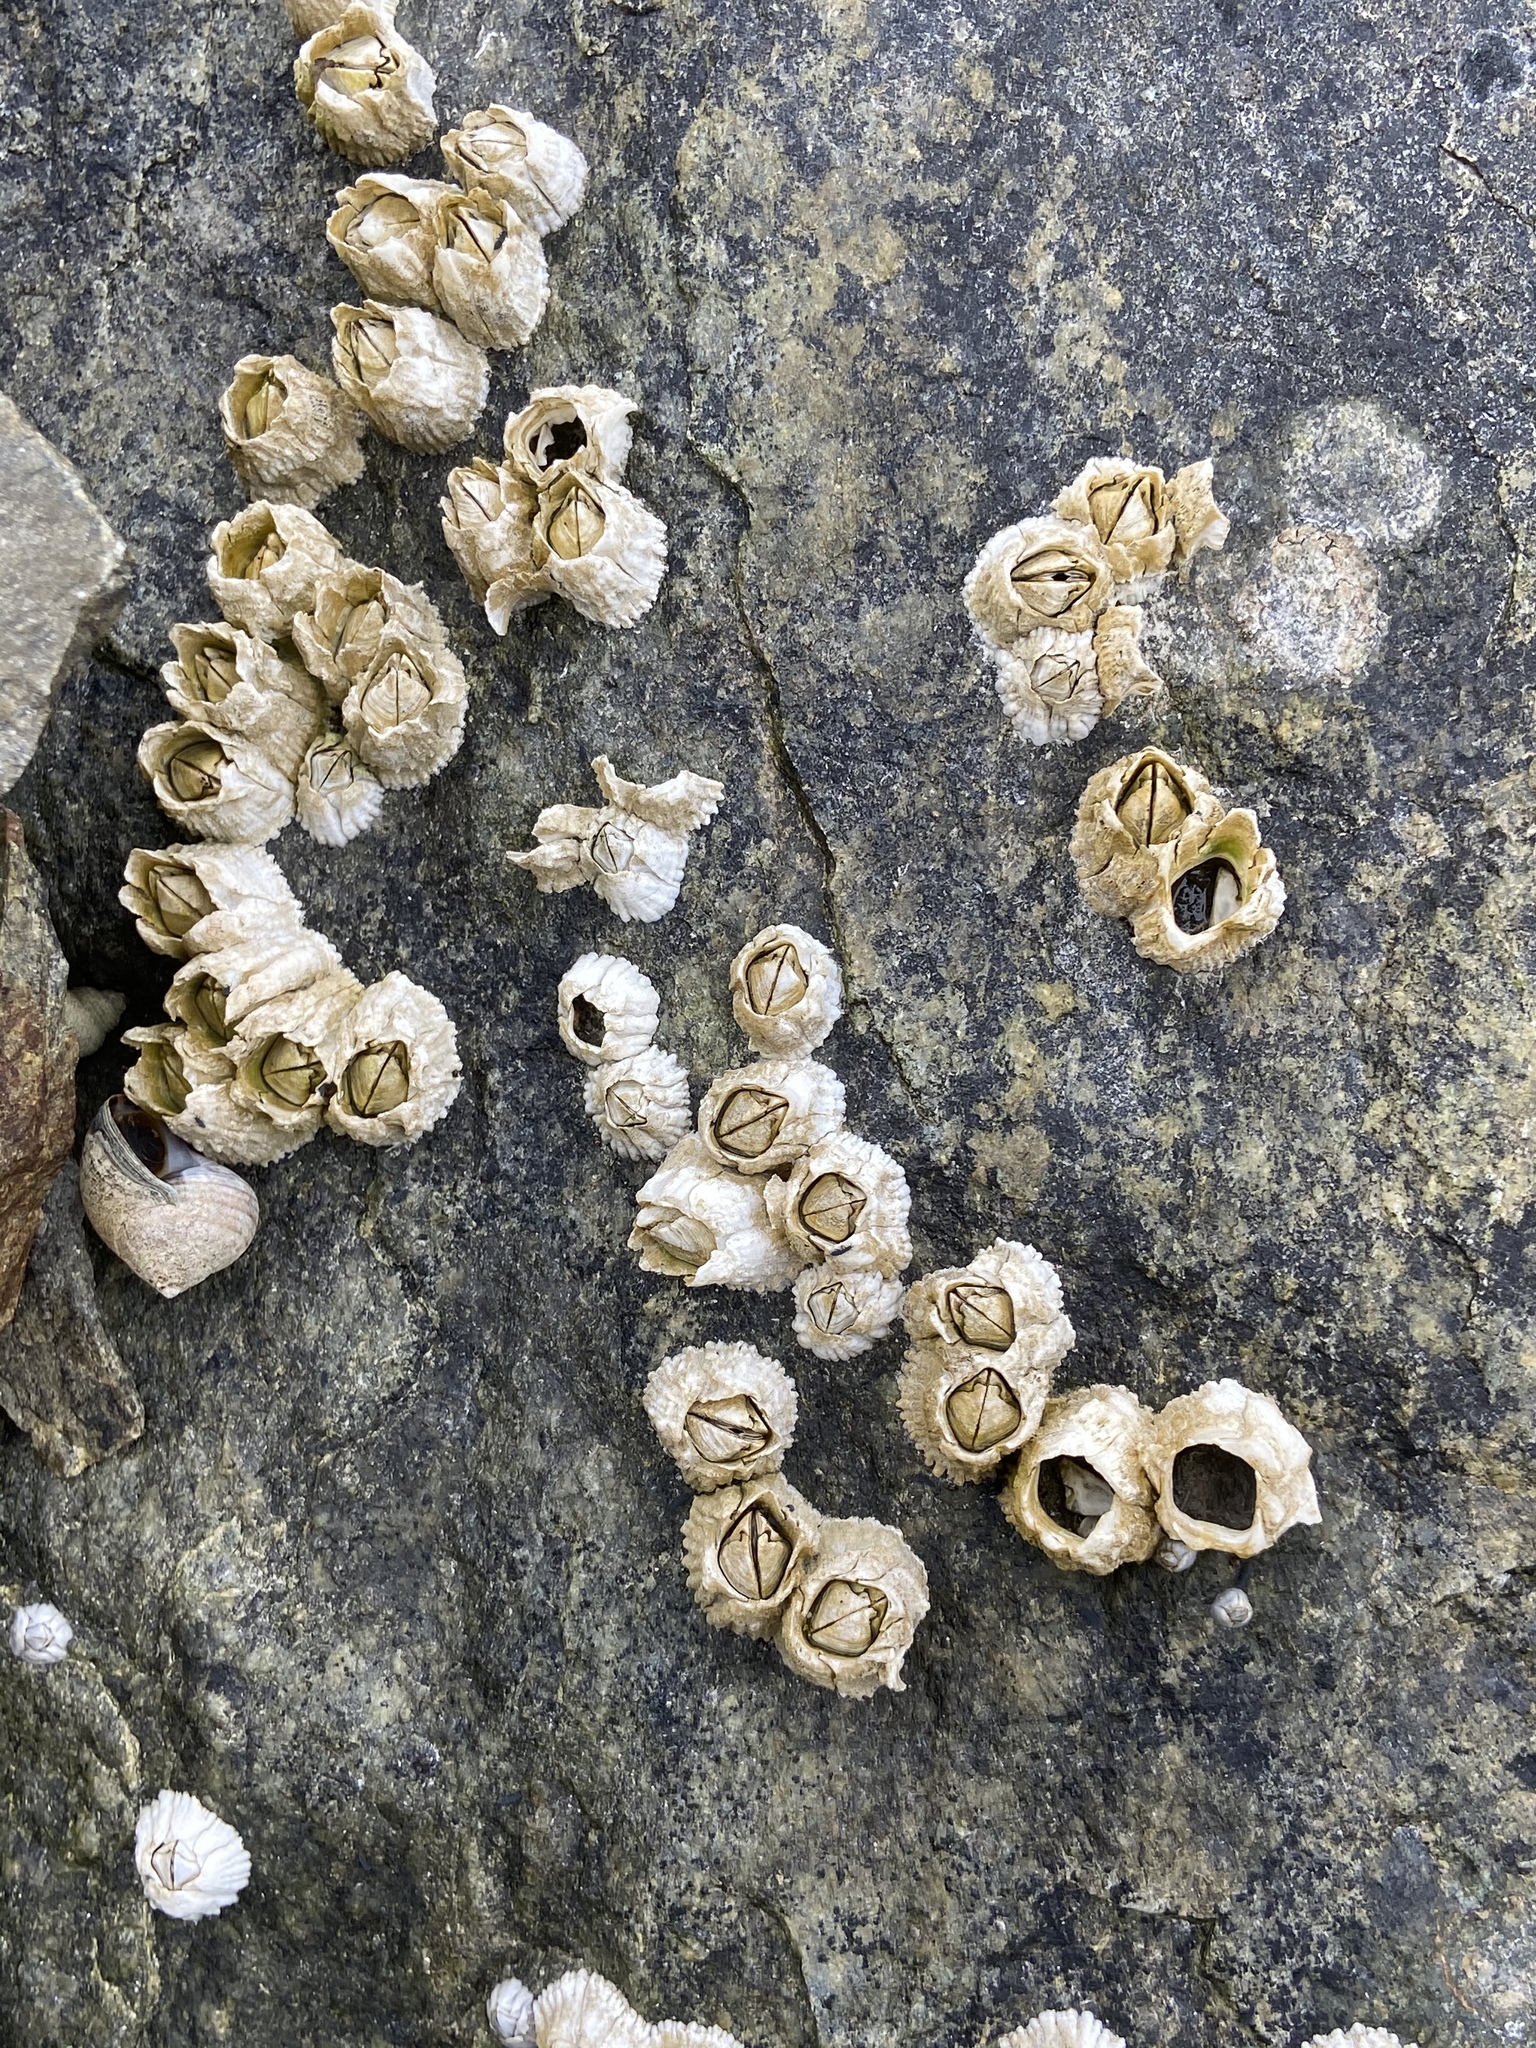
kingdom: Animalia
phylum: Arthropoda
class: Maxillopoda
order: Sessilia
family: Archaeobalanidae
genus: Semibalanus
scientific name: Semibalanus balanoides
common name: Acorn barnacle
